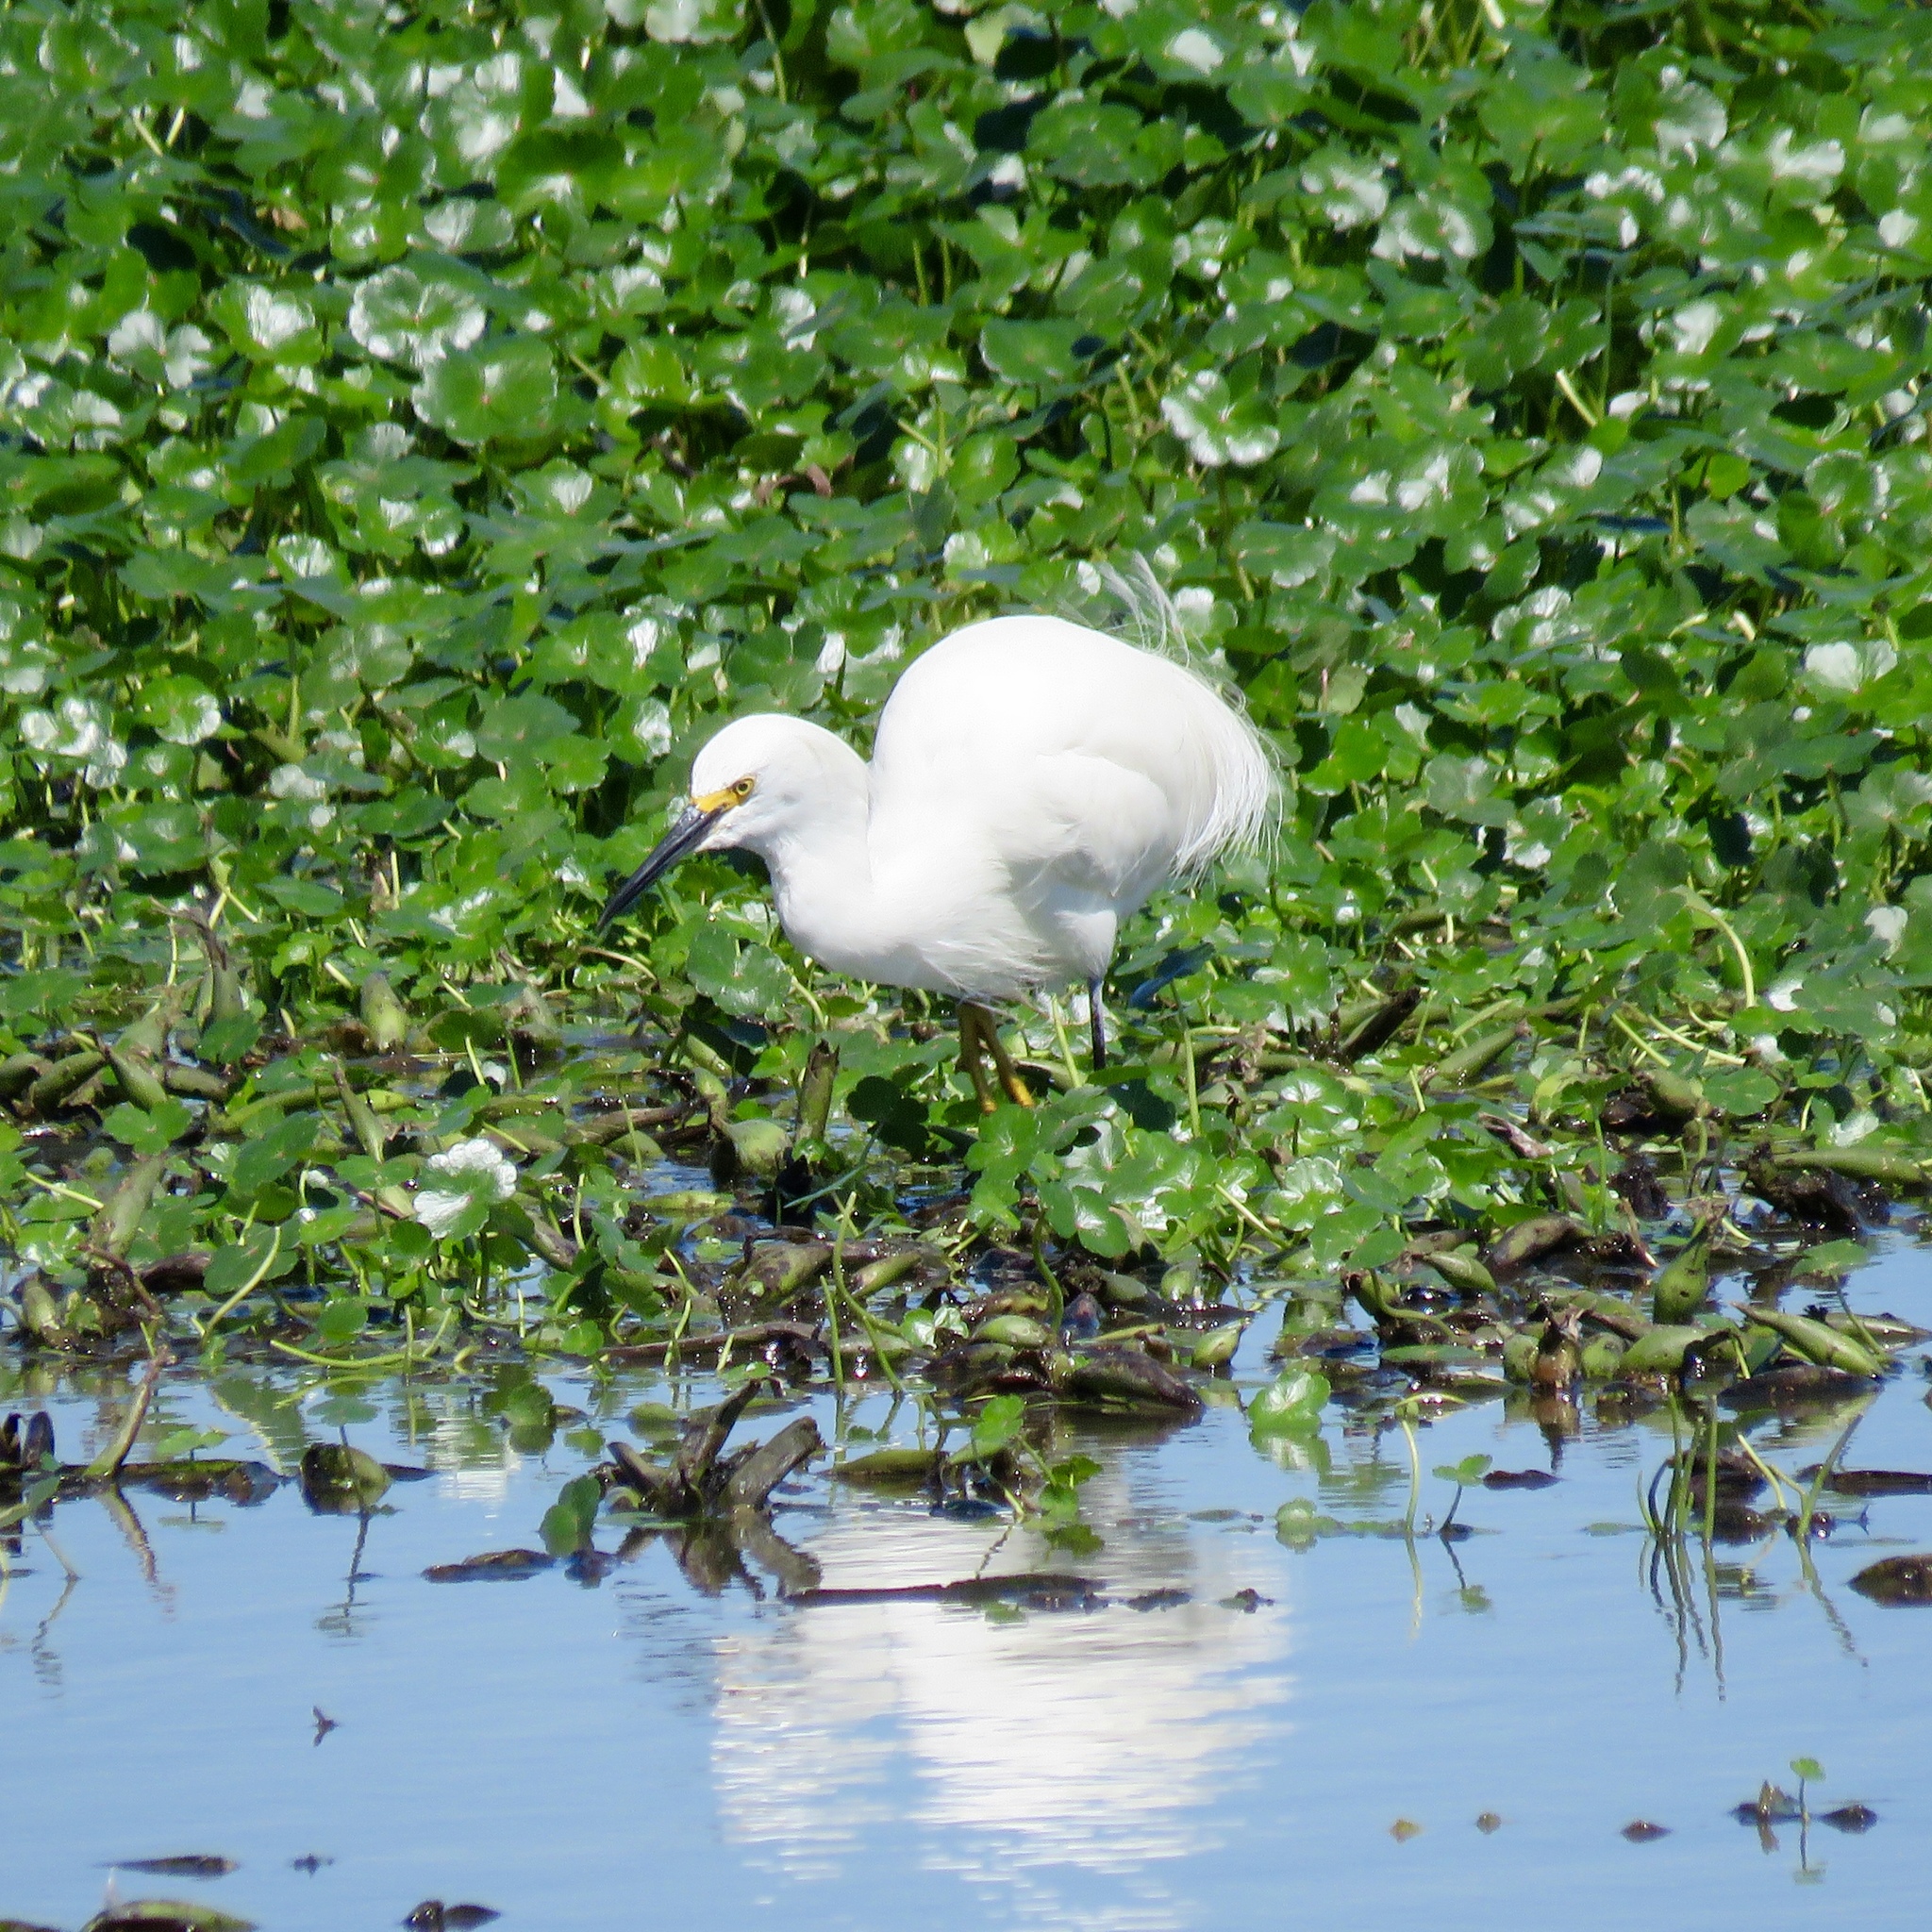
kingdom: Animalia
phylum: Chordata
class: Aves
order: Pelecaniformes
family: Ardeidae
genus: Egretta
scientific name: Egretta thula
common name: Snowy egret
